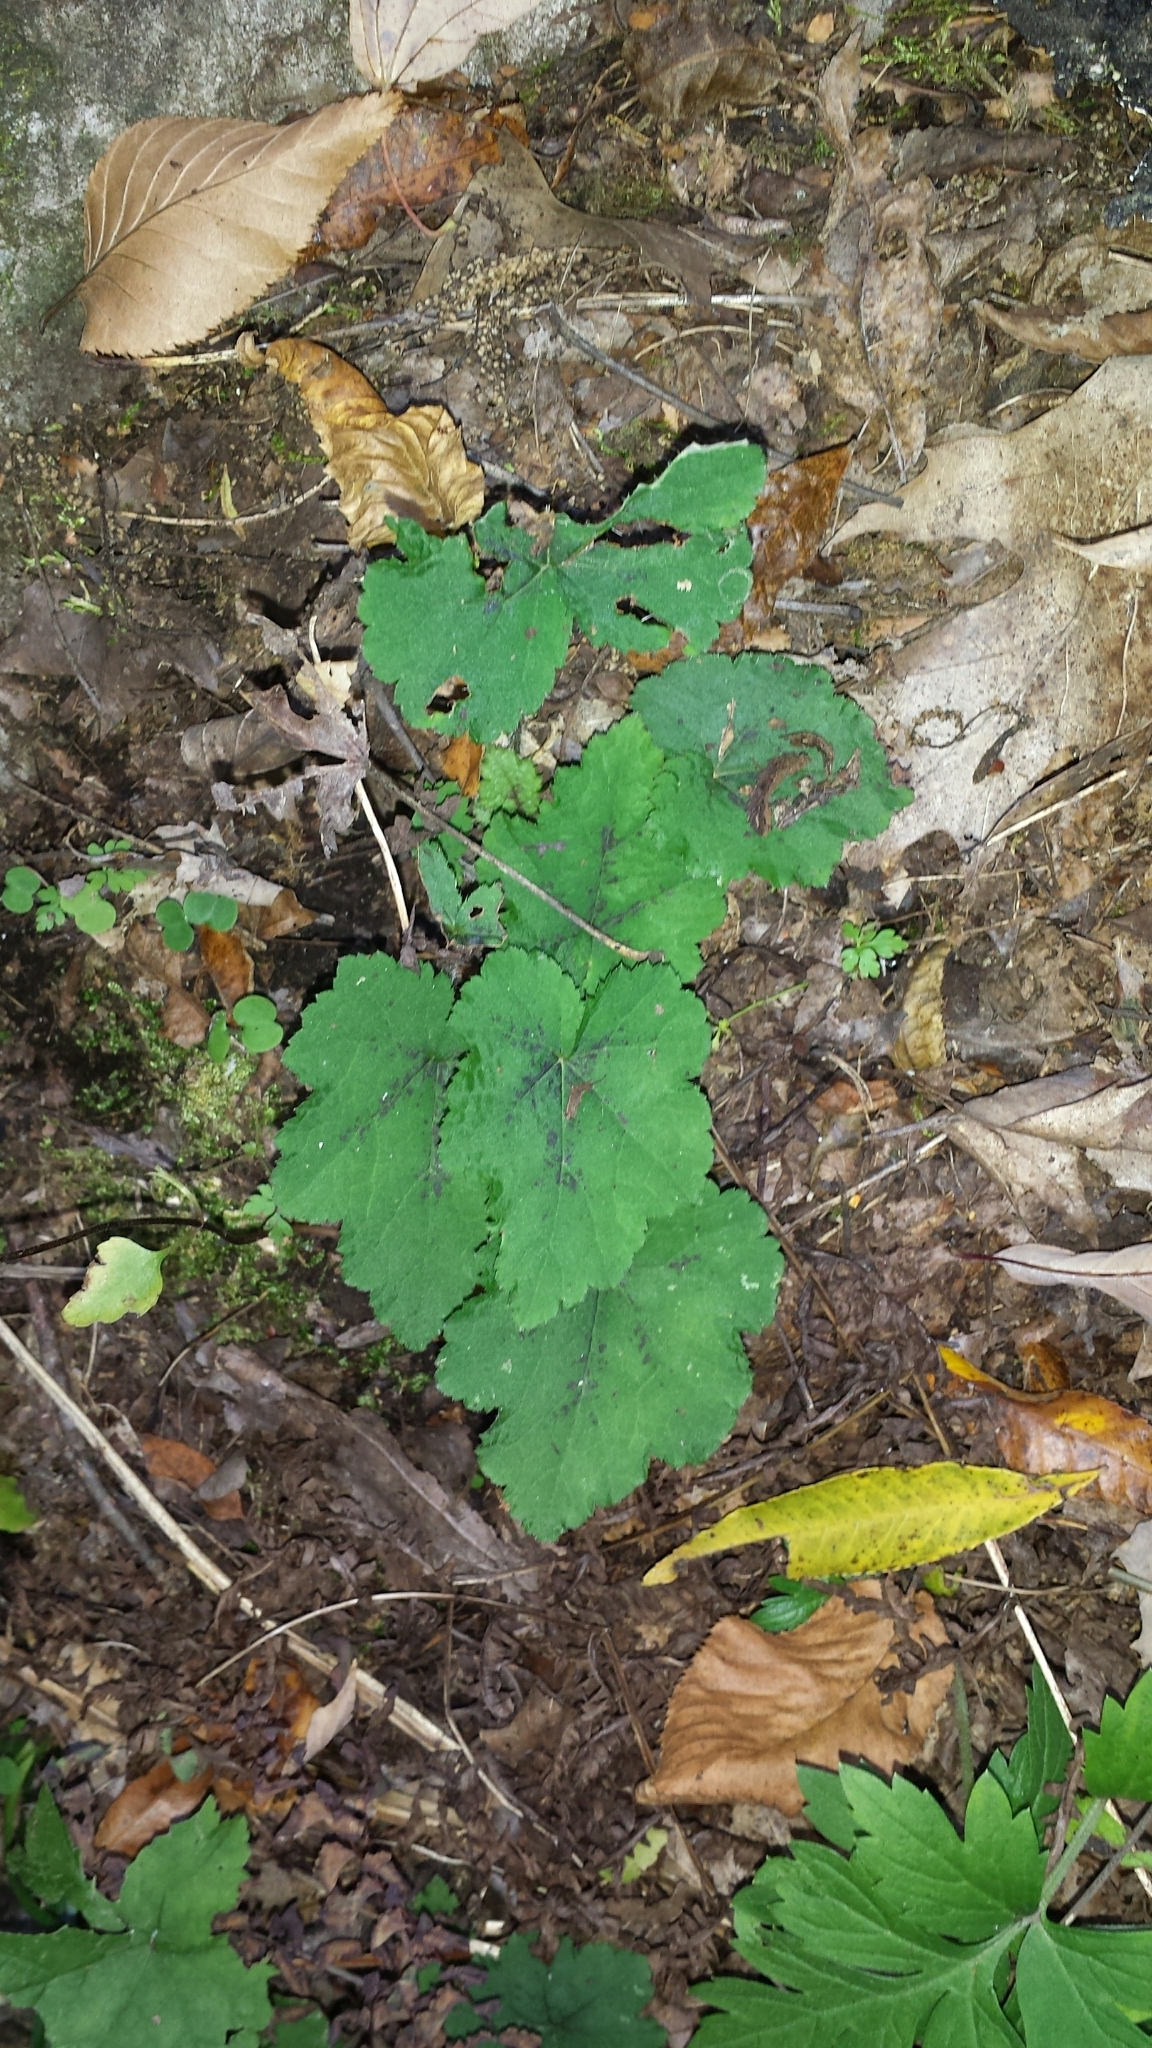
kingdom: Plantae
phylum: Tracheophyta
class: Magnoliopsida
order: Saxifragales
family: Saxifragaceae
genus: Tiarella
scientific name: Tiarella stolonifera
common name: Stoloniferous foamflower
